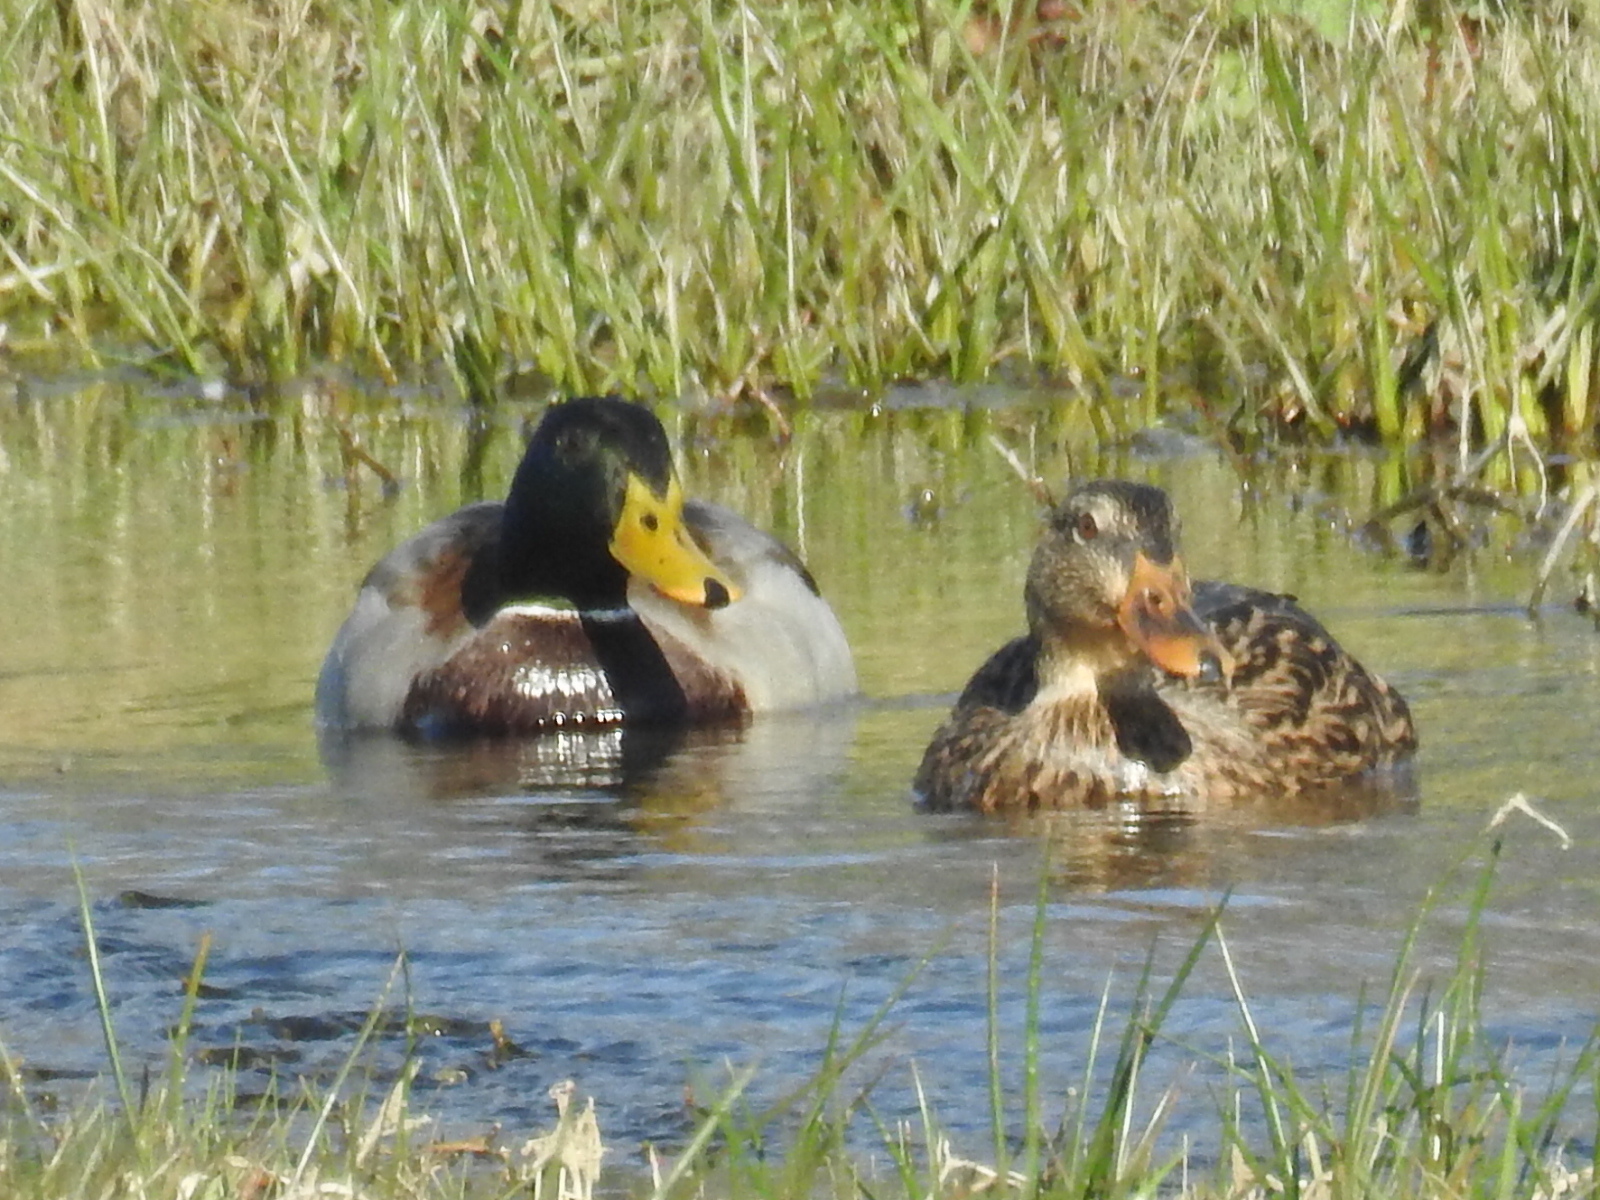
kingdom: Animalia
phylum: Chordata
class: Aves
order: Anseriformes
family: Anatidae
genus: Anas
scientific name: Anas platyrhynchos
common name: Mallard
